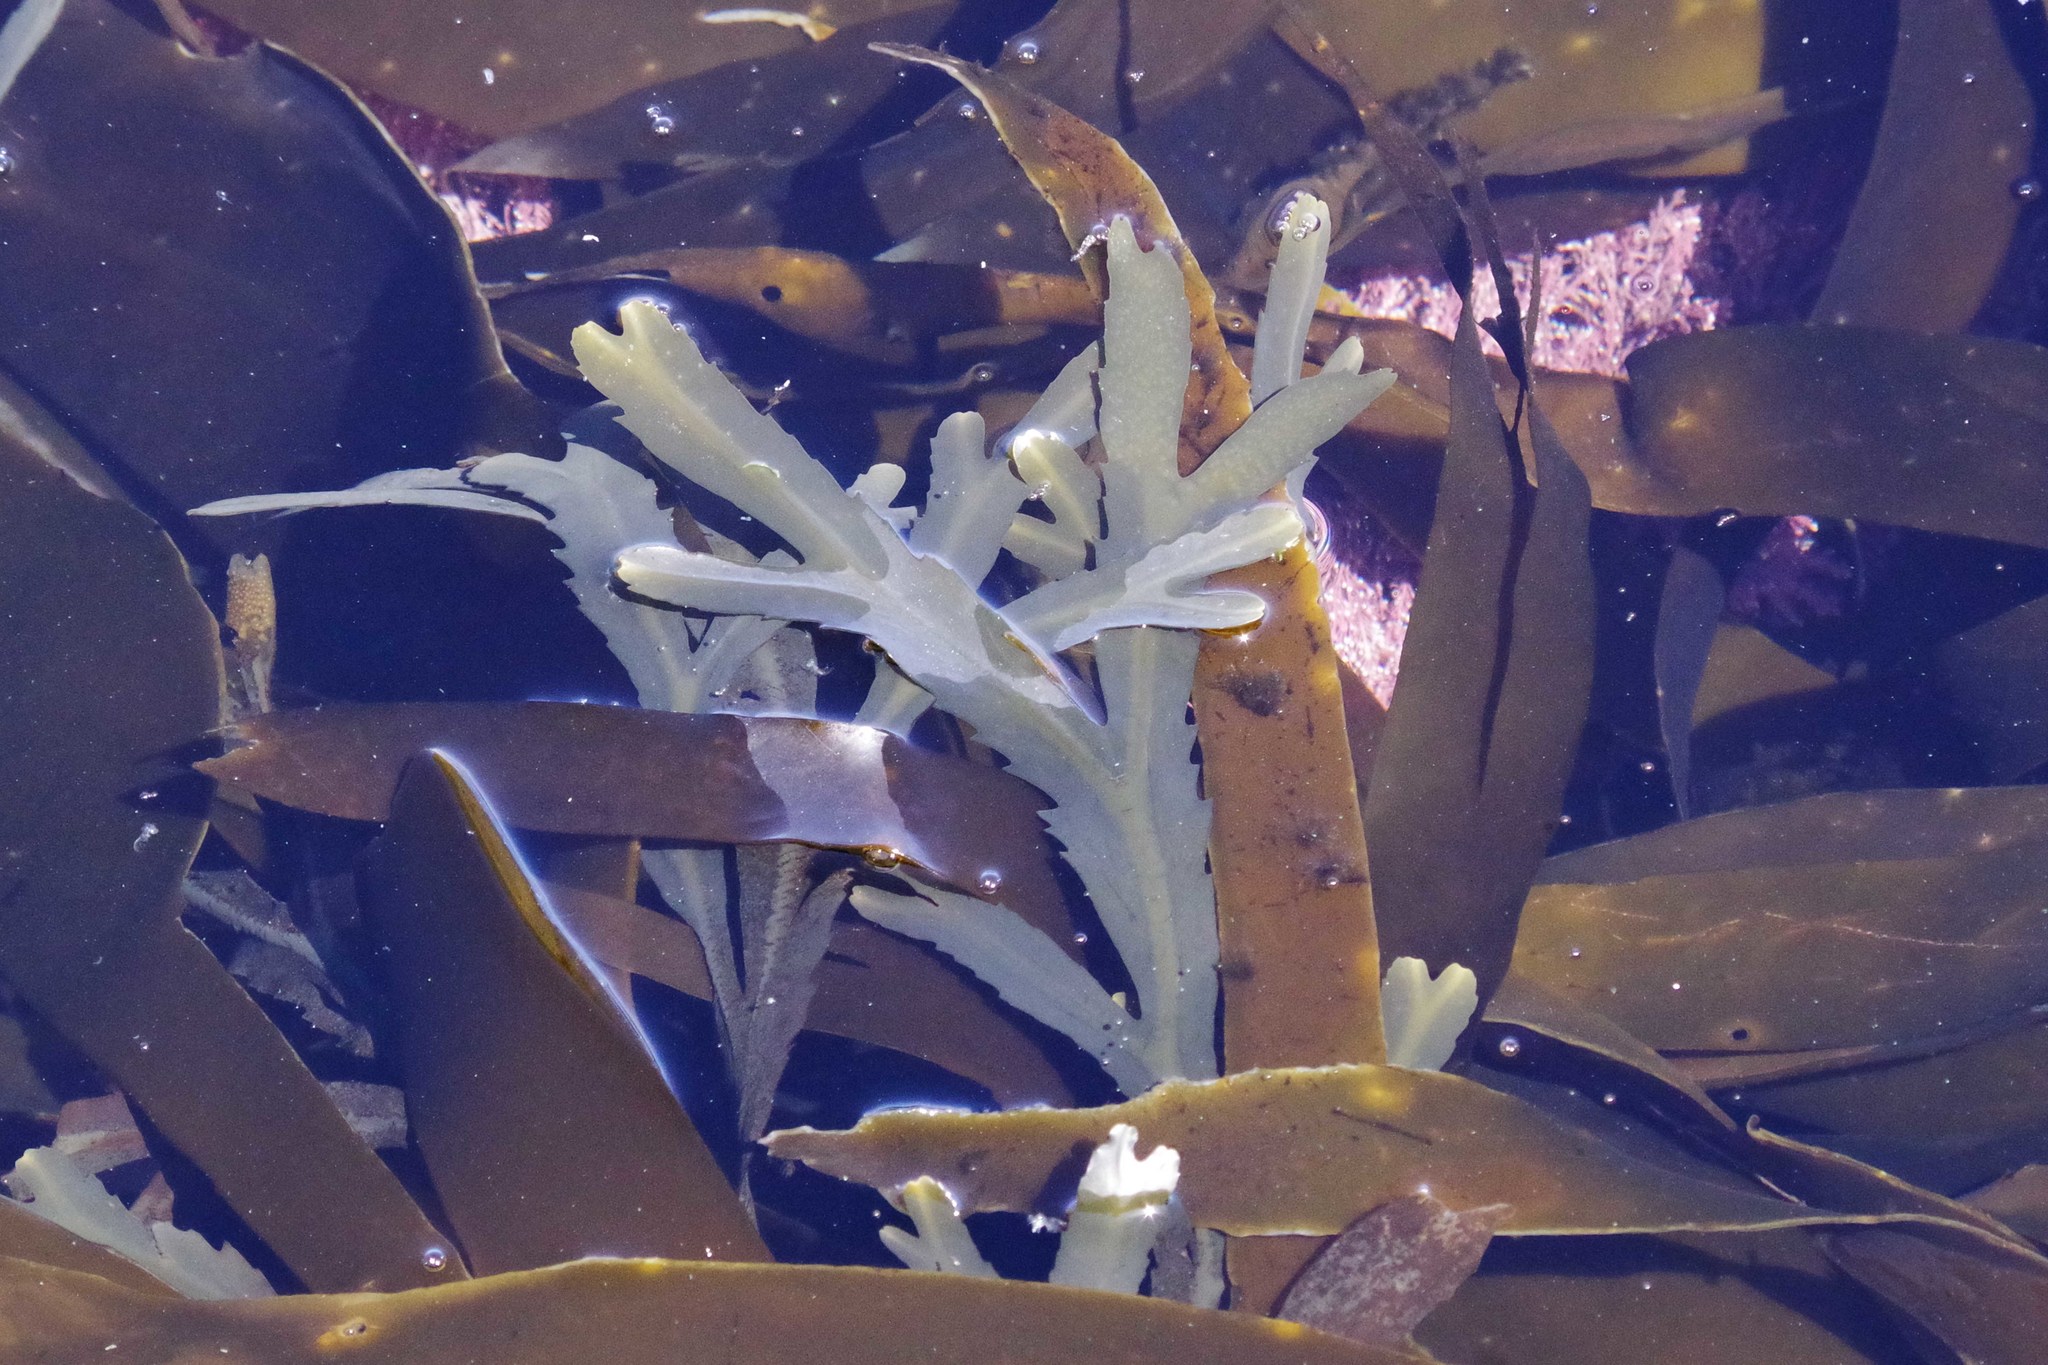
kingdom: Chromista
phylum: Ochrophyta
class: Phaeophyceae
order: Fucales
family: Fucaceae
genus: Fucus
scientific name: Fucus serratus
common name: Toothed wrack
